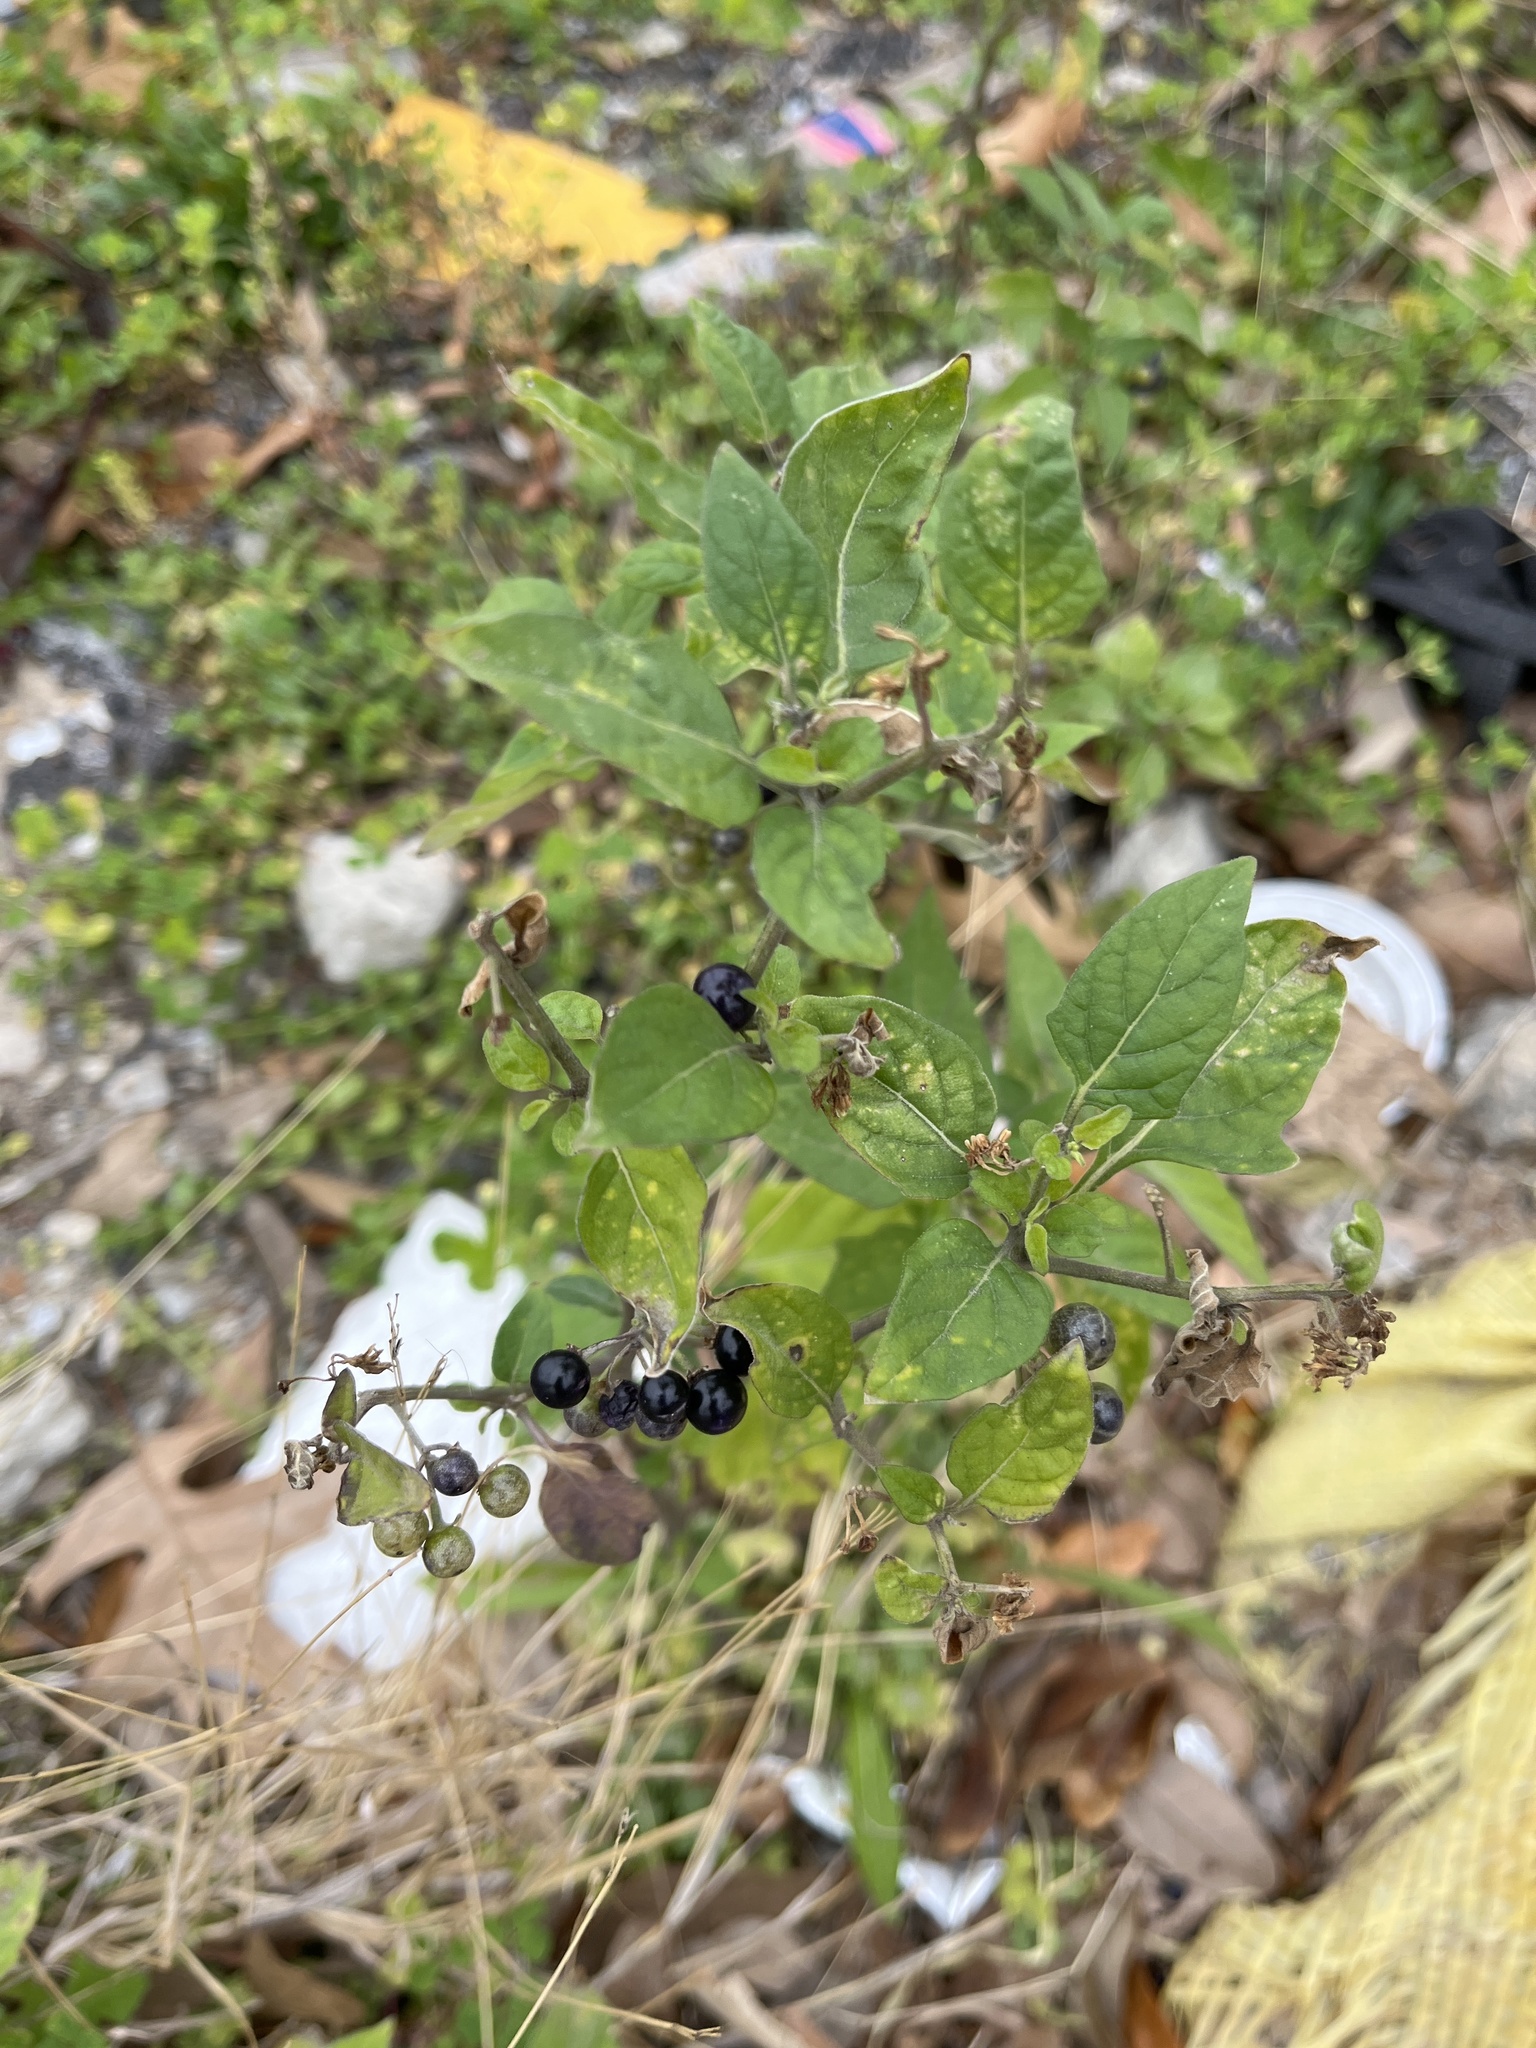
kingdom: Plantae
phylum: Tracheophyta
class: Magnoliopsida
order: Solanales
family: Solanaceae
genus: Solanum
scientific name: Solanum americanum
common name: American black nightshade
